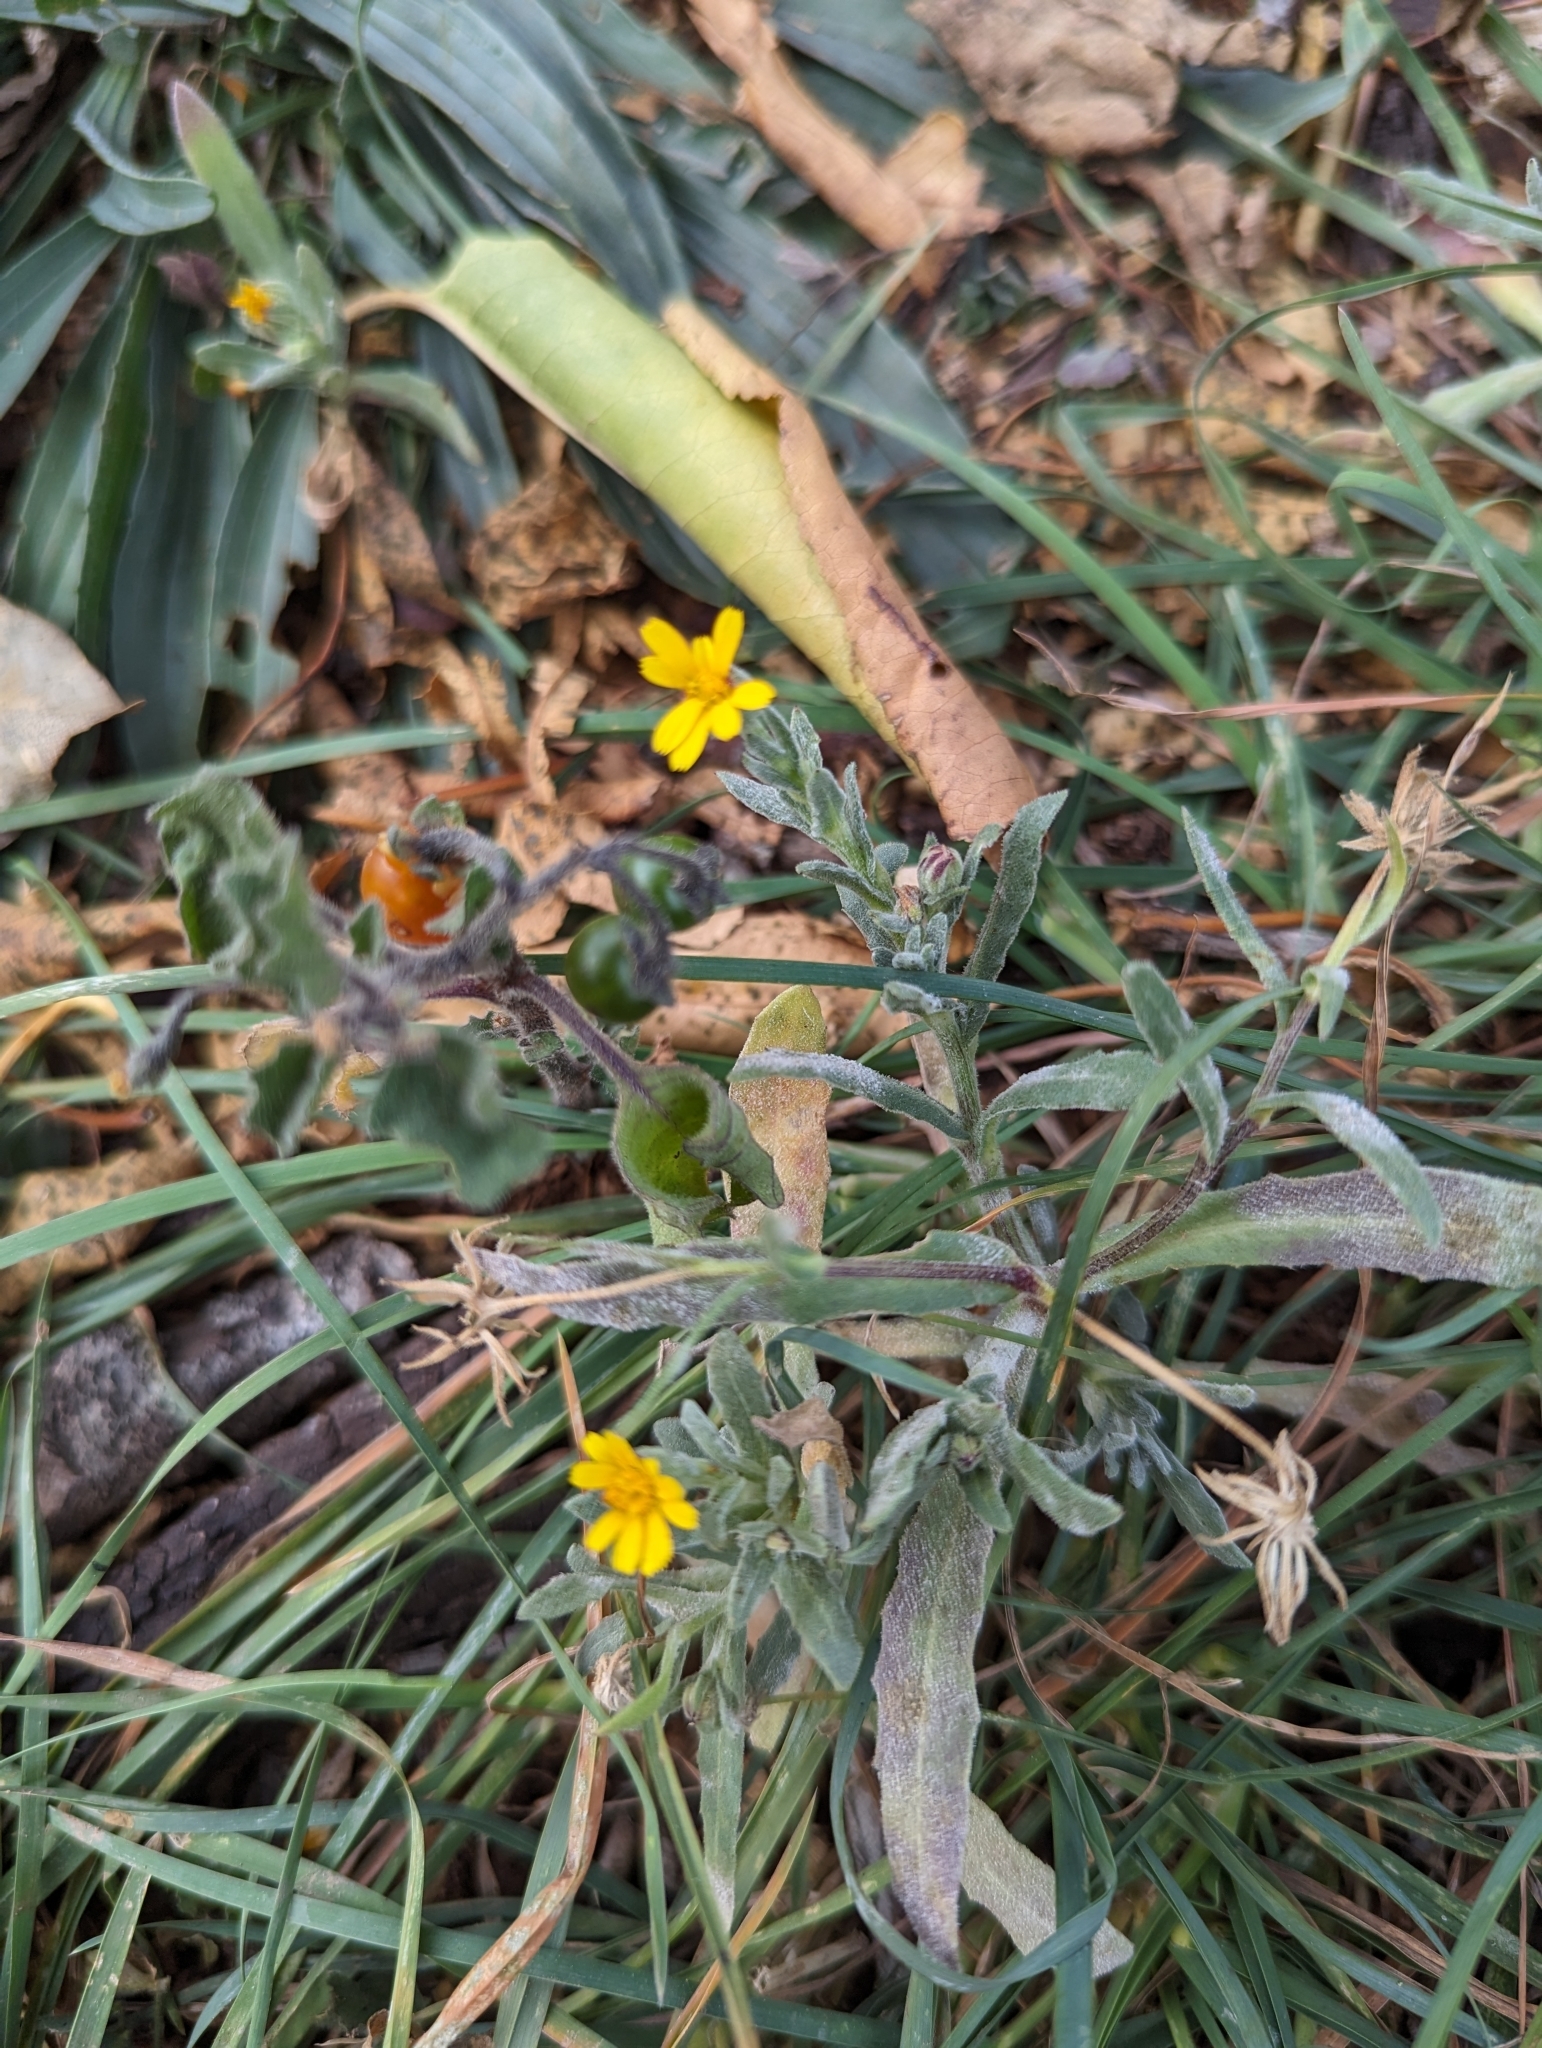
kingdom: Plantae
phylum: Tracheophyta
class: Magnoliopsida
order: Asterales
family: Asteraceae
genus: Calendula
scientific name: Calendula arvensis
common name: Field marigold
